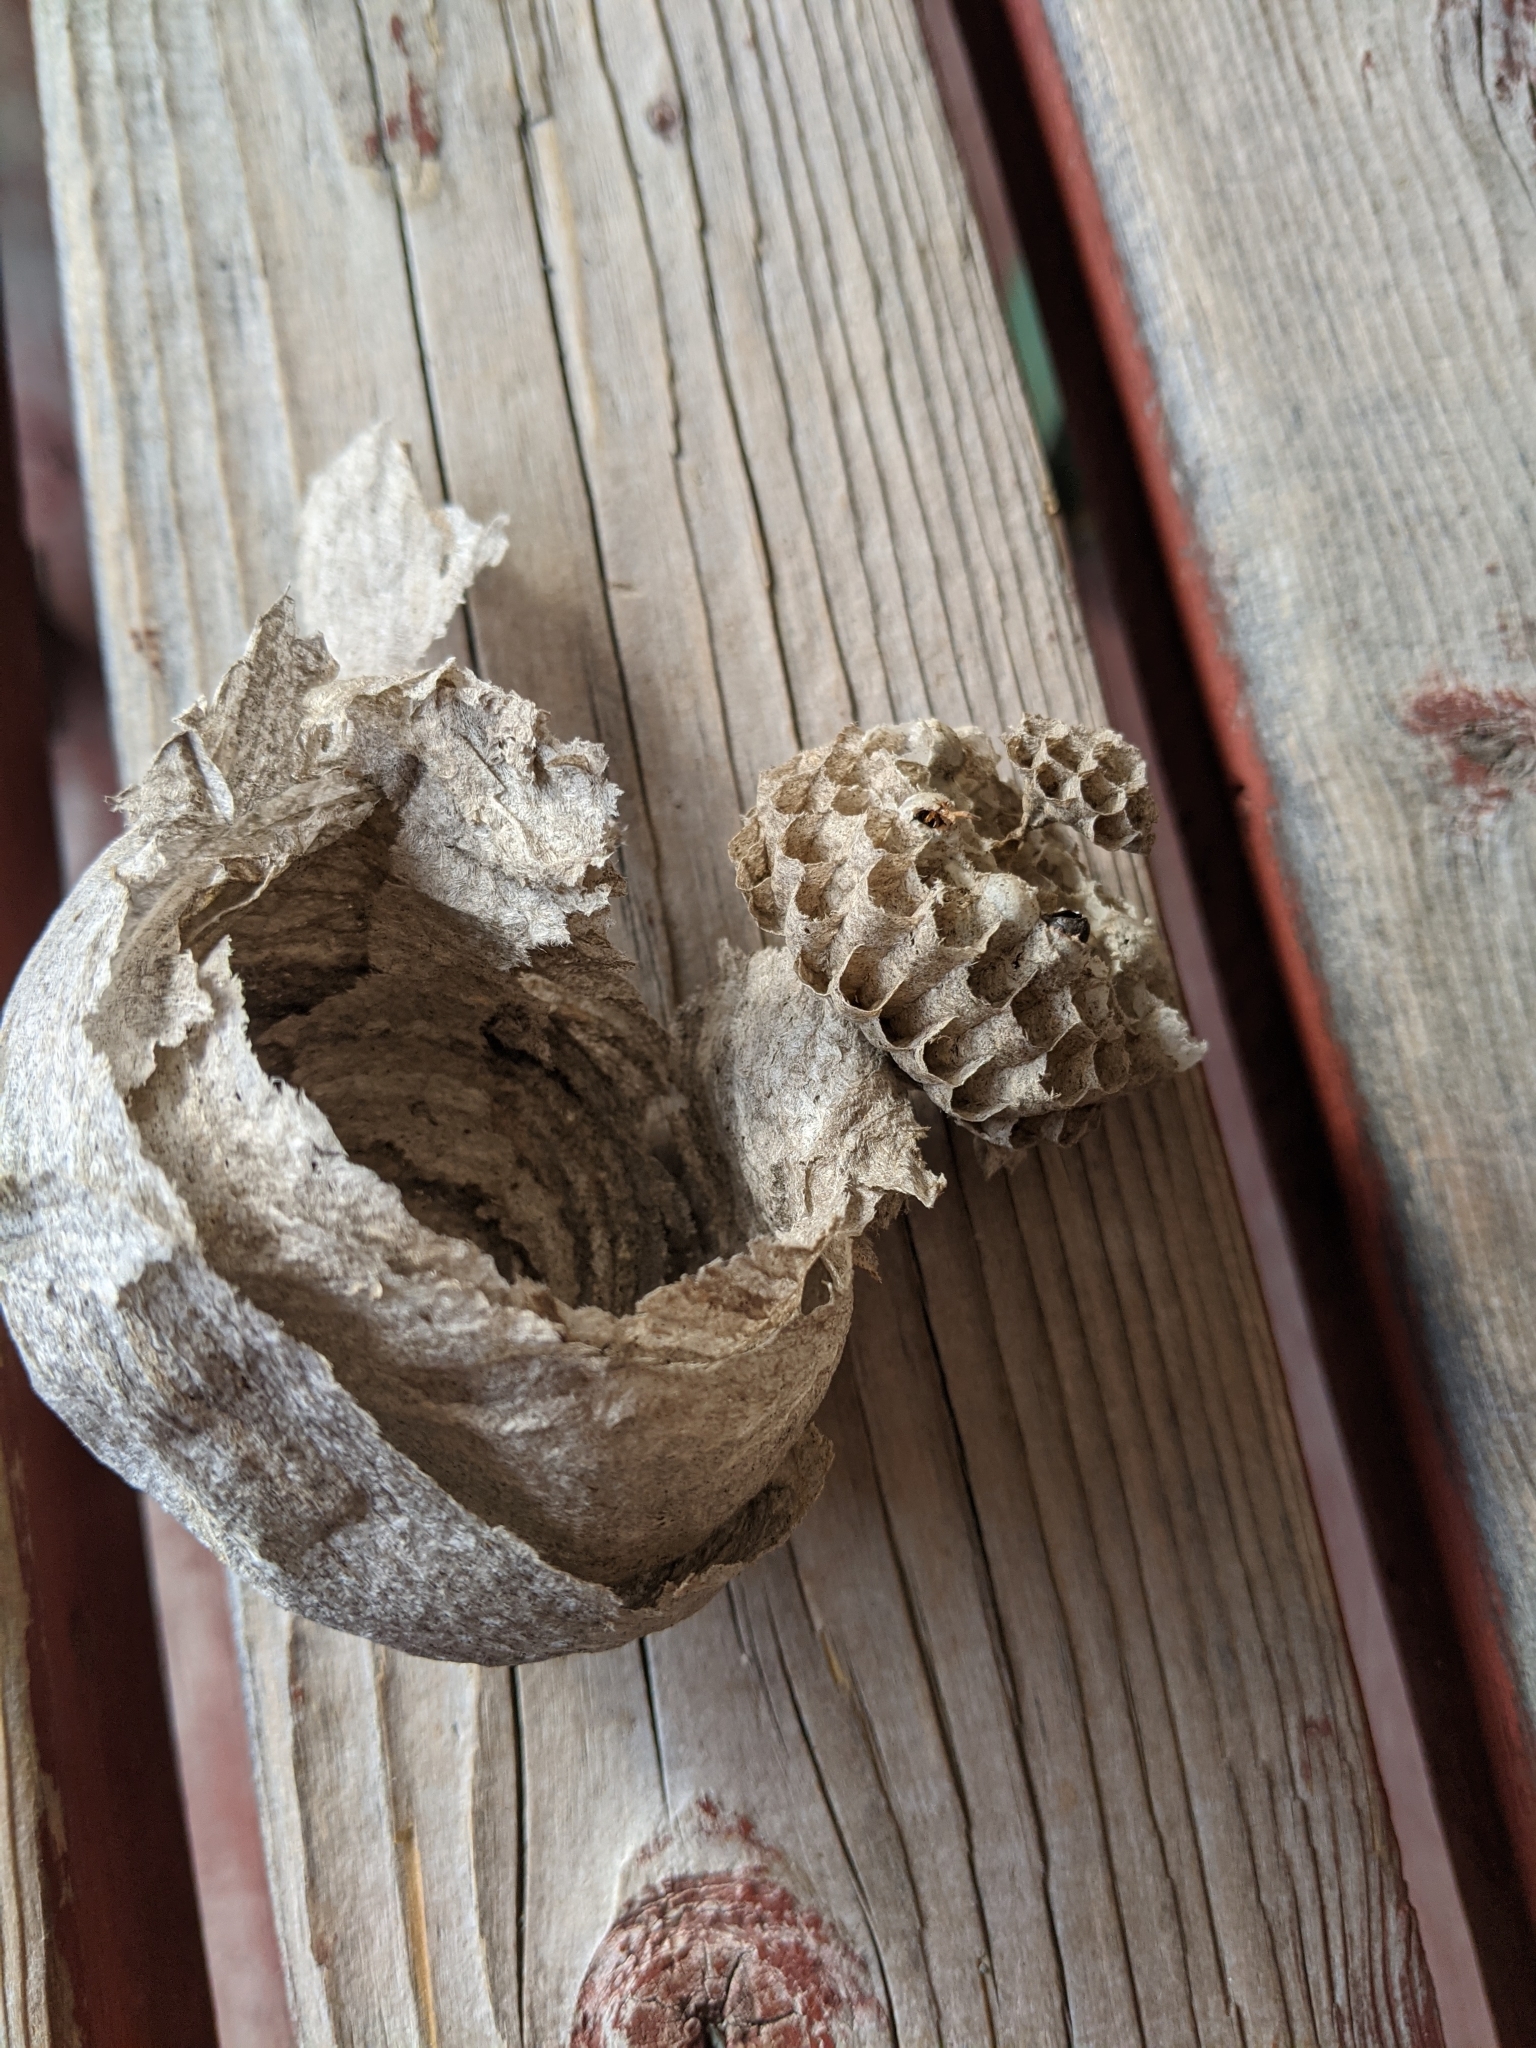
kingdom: Animalia
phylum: Arthropoda
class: Insecta
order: Hymenoptera
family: Vespidae
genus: Dolichovespula
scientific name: Dolichovespula
